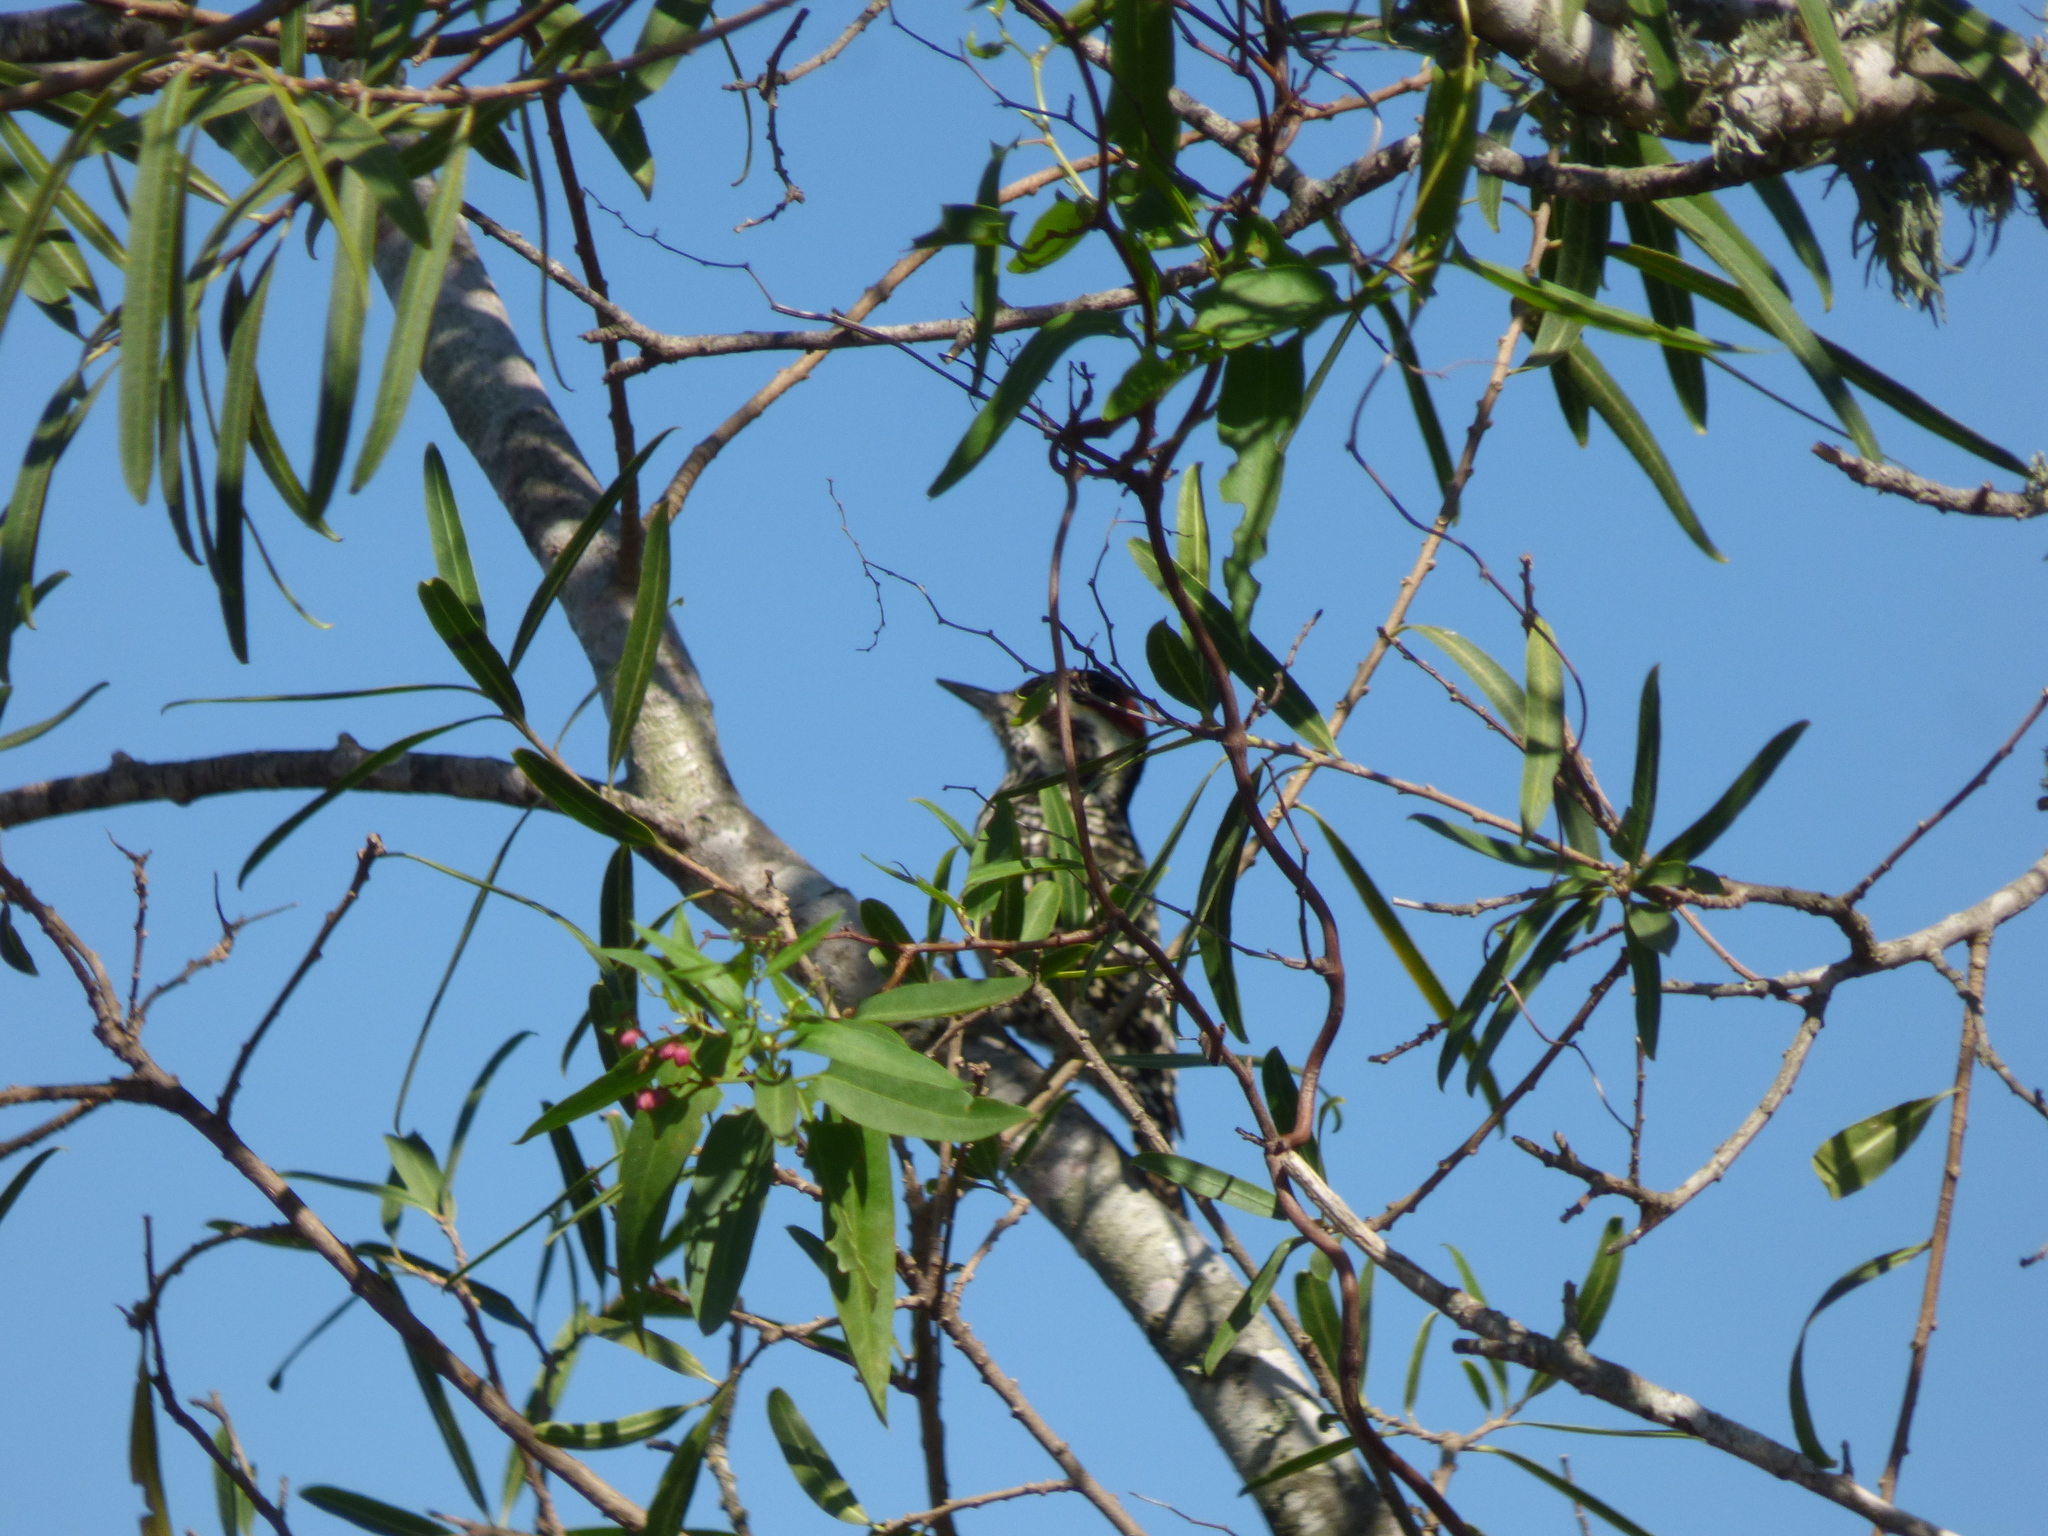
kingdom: Animalia
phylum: Chordata
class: Aves
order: Piciformes
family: Picidae
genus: Veniliornis
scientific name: Veniliornis mixtus
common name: Checkered woodpecker
